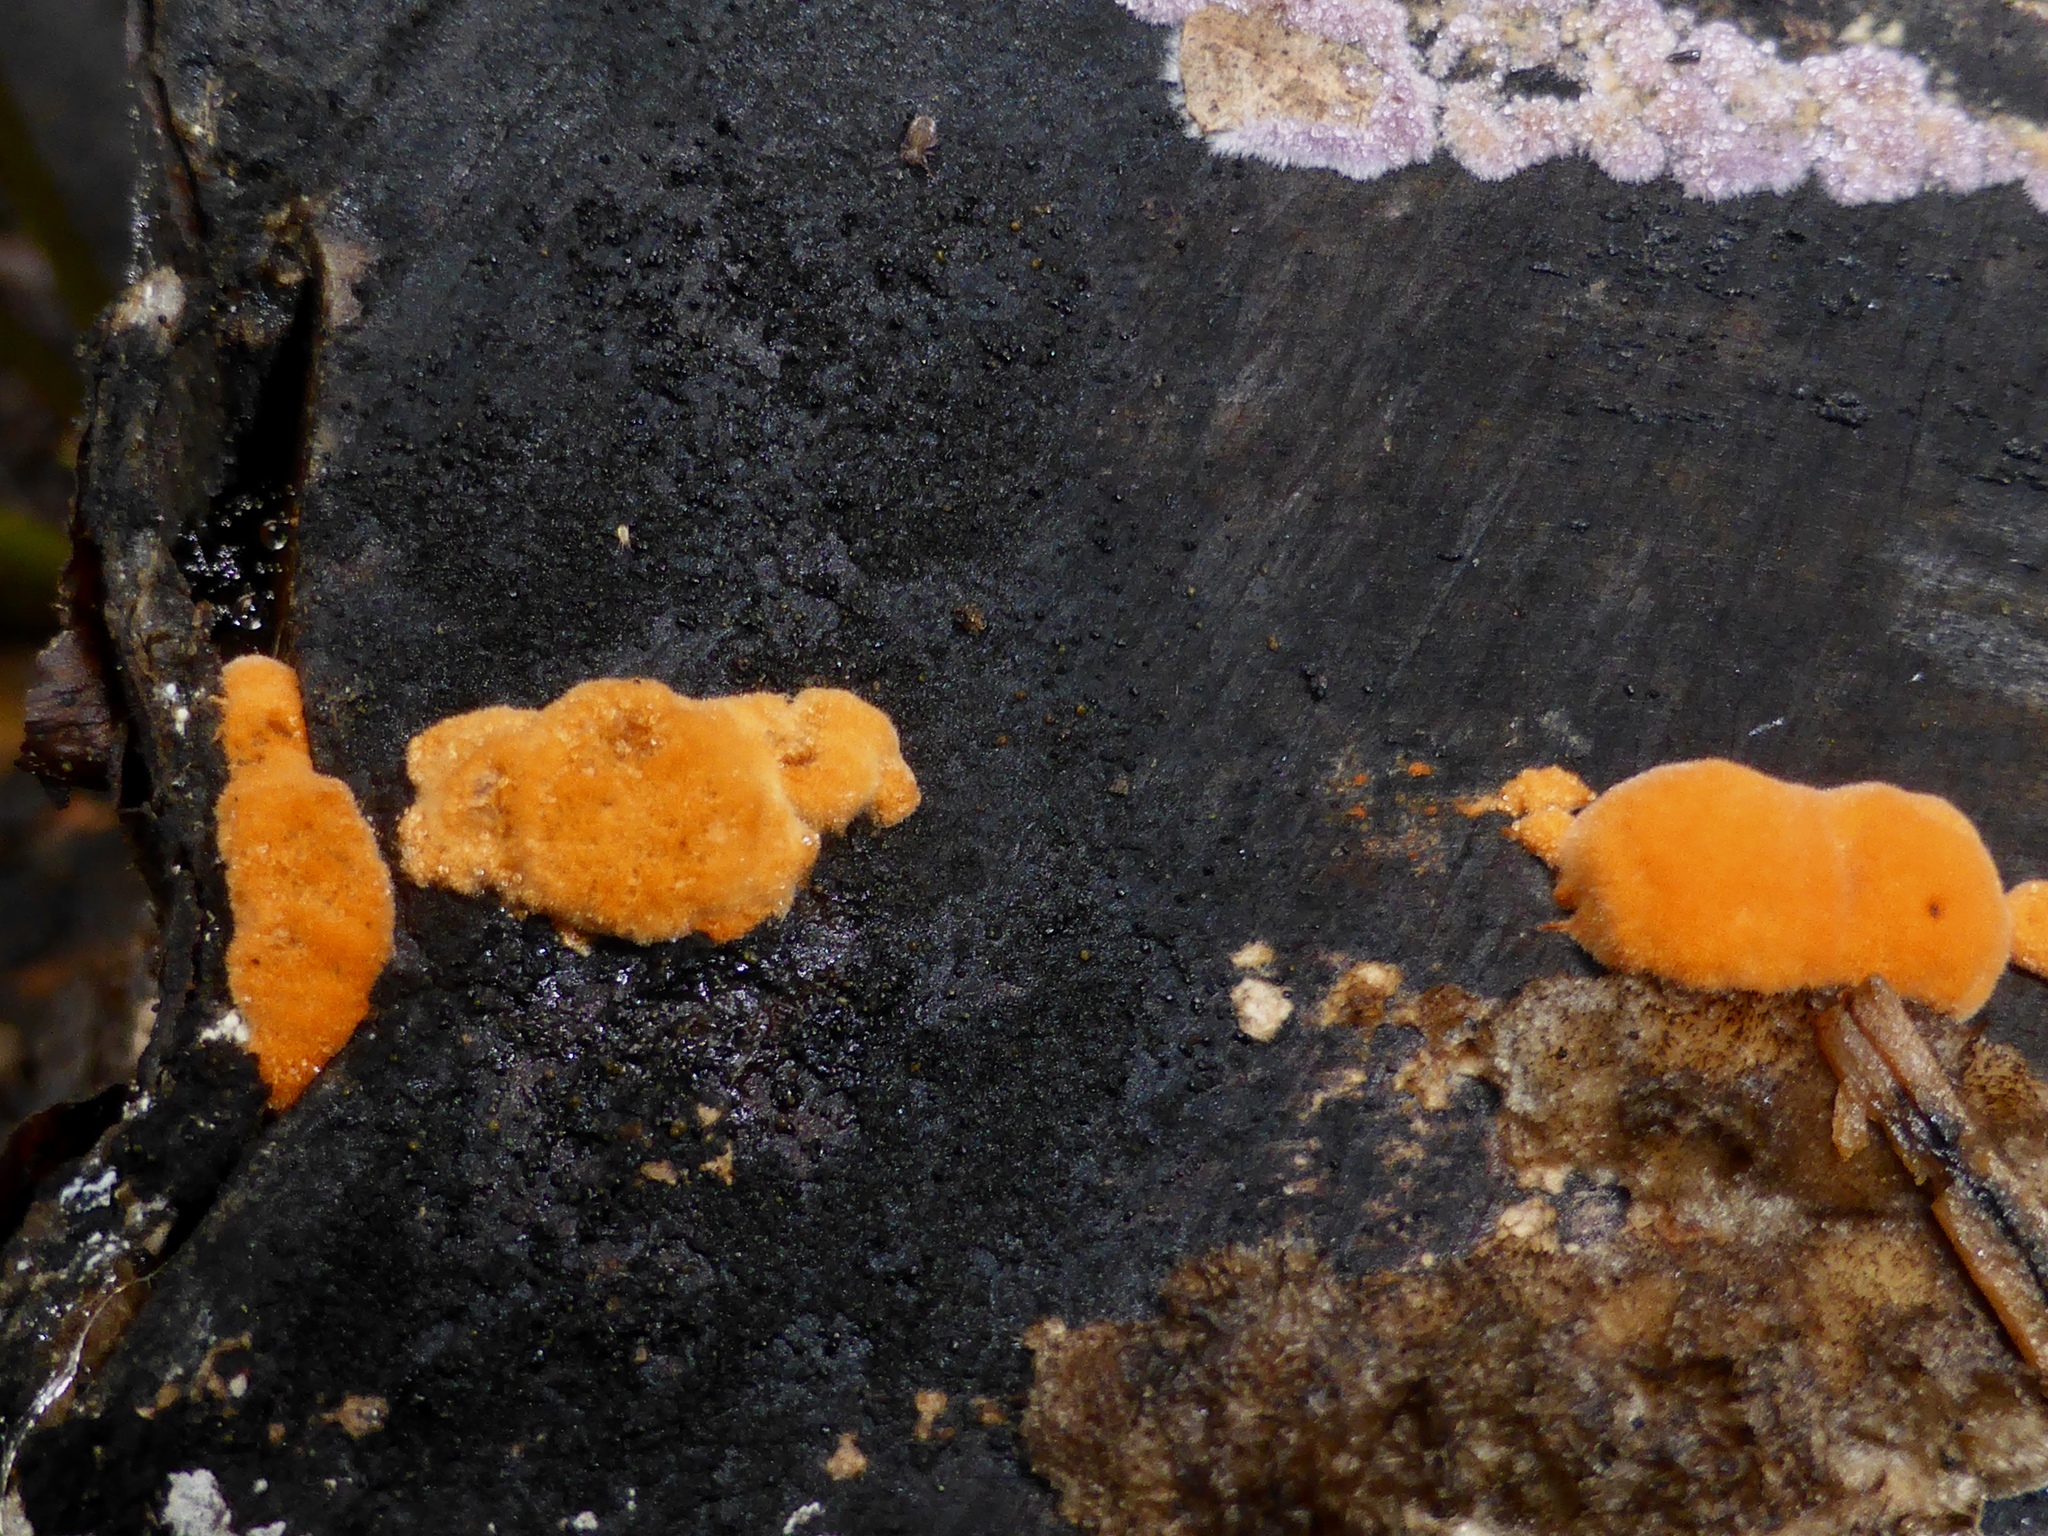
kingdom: Fungi
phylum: Basidiomycota
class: Agaricomycetes
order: Polyporales
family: Polyporaceae
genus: Trametes
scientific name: Trametes coccinea
